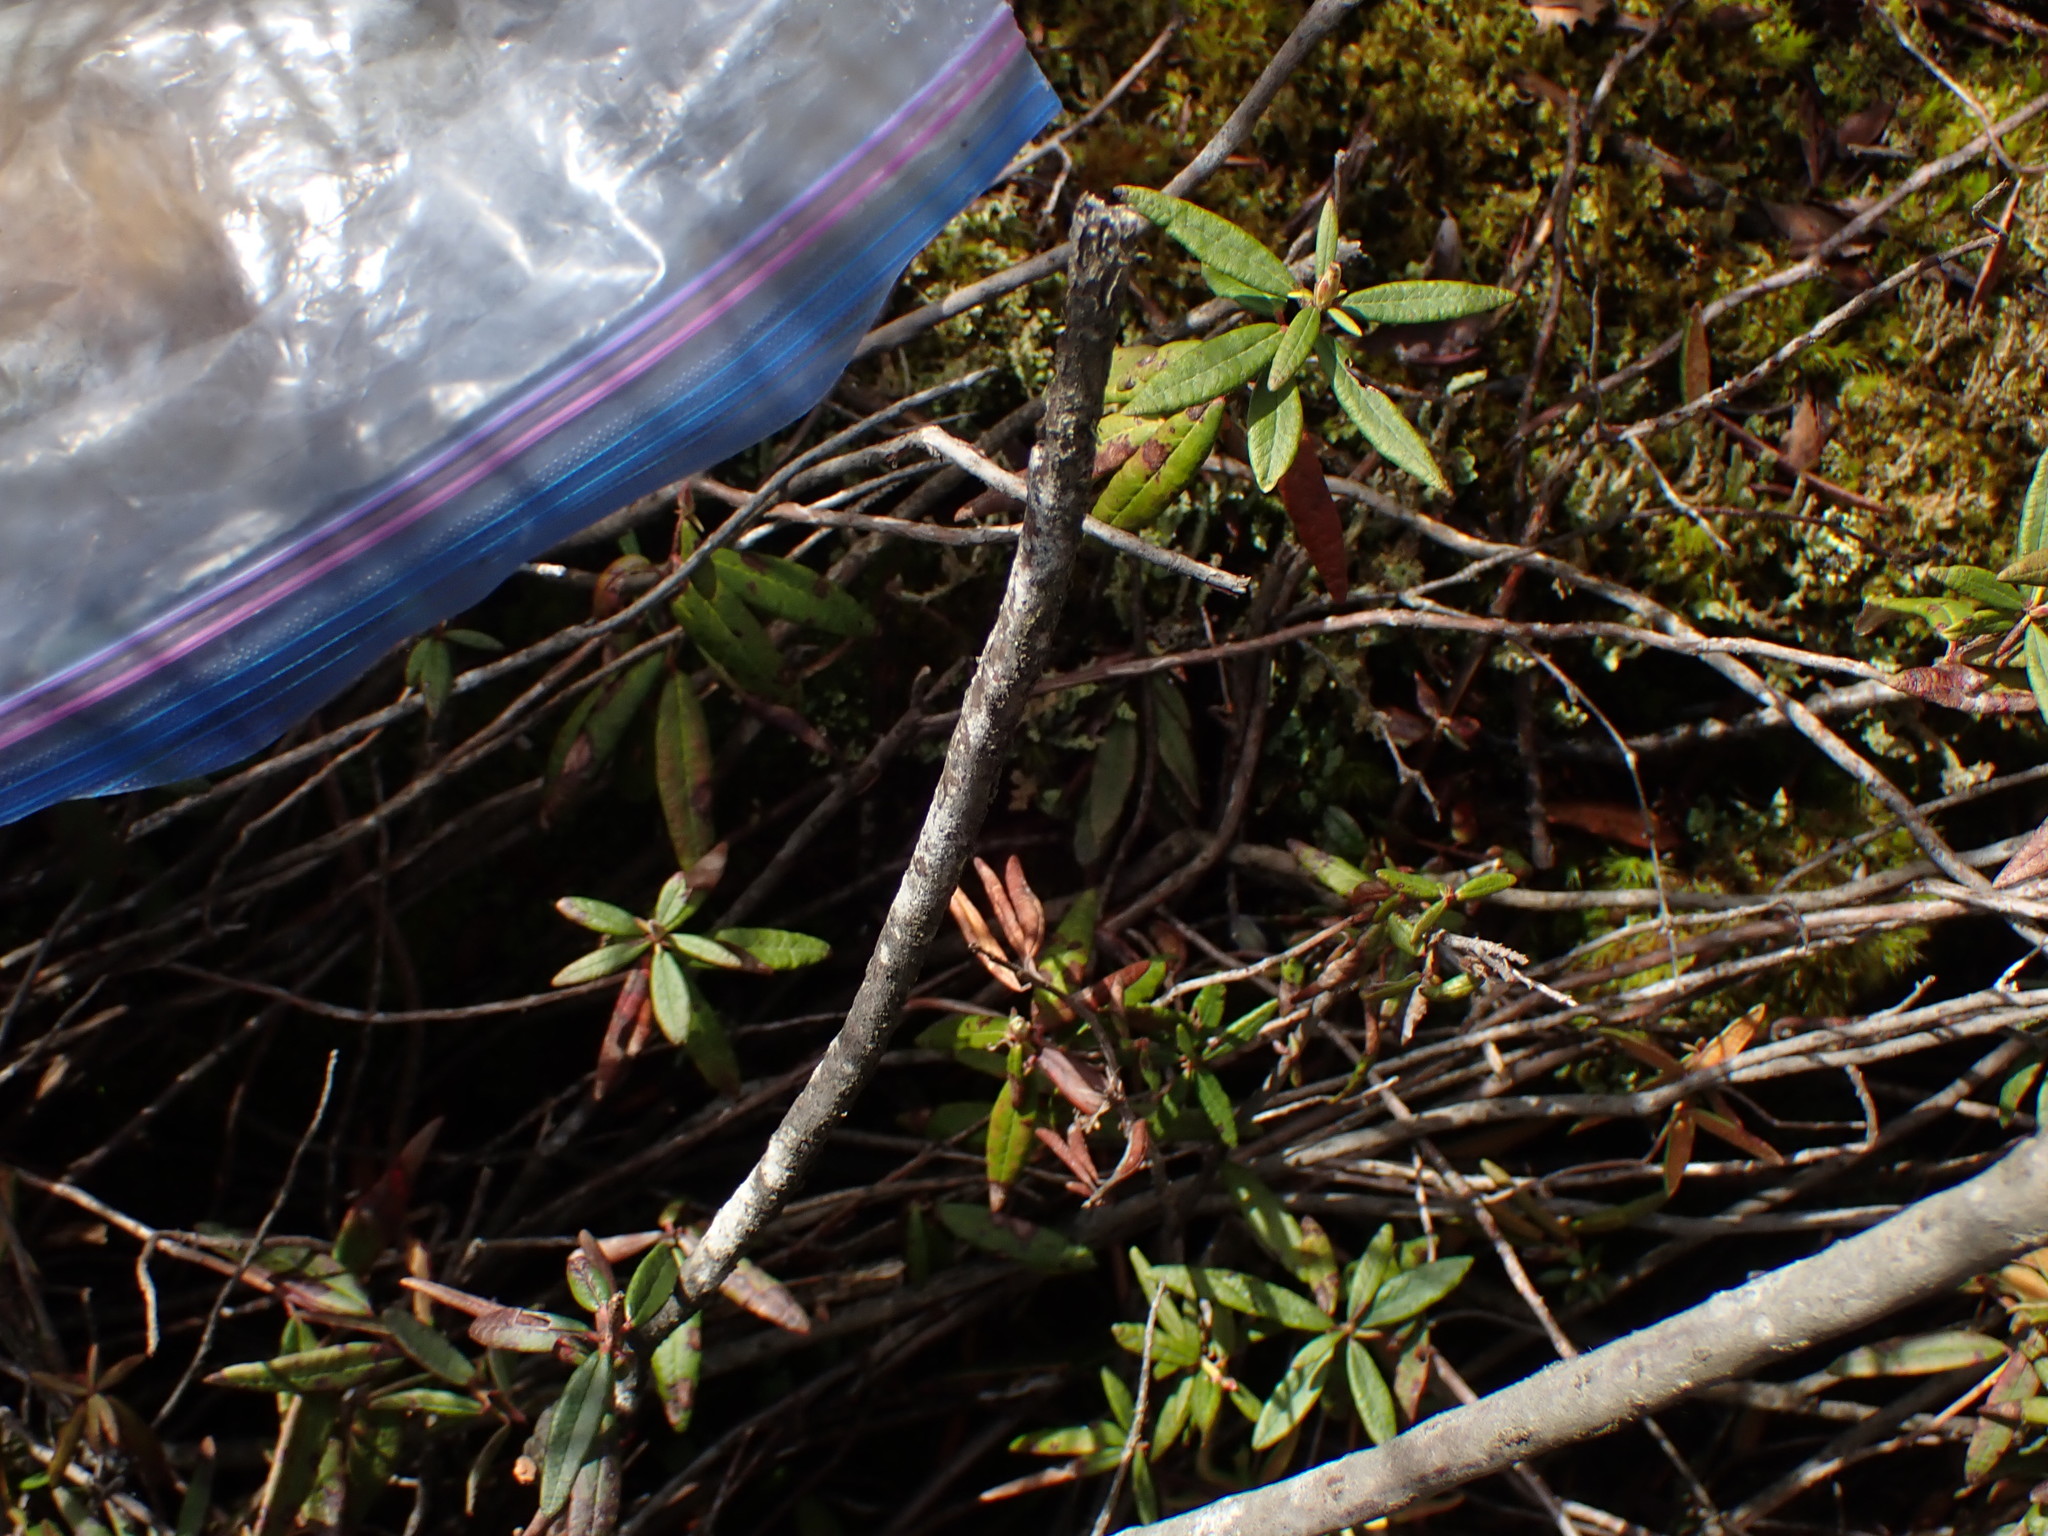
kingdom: Plantae
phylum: Tracheophyta
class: Magnoliopsida
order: Ericales
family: Ericaceae
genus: Rhododendron
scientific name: Rhododendron groenlandicum
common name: Bog labrador tea
